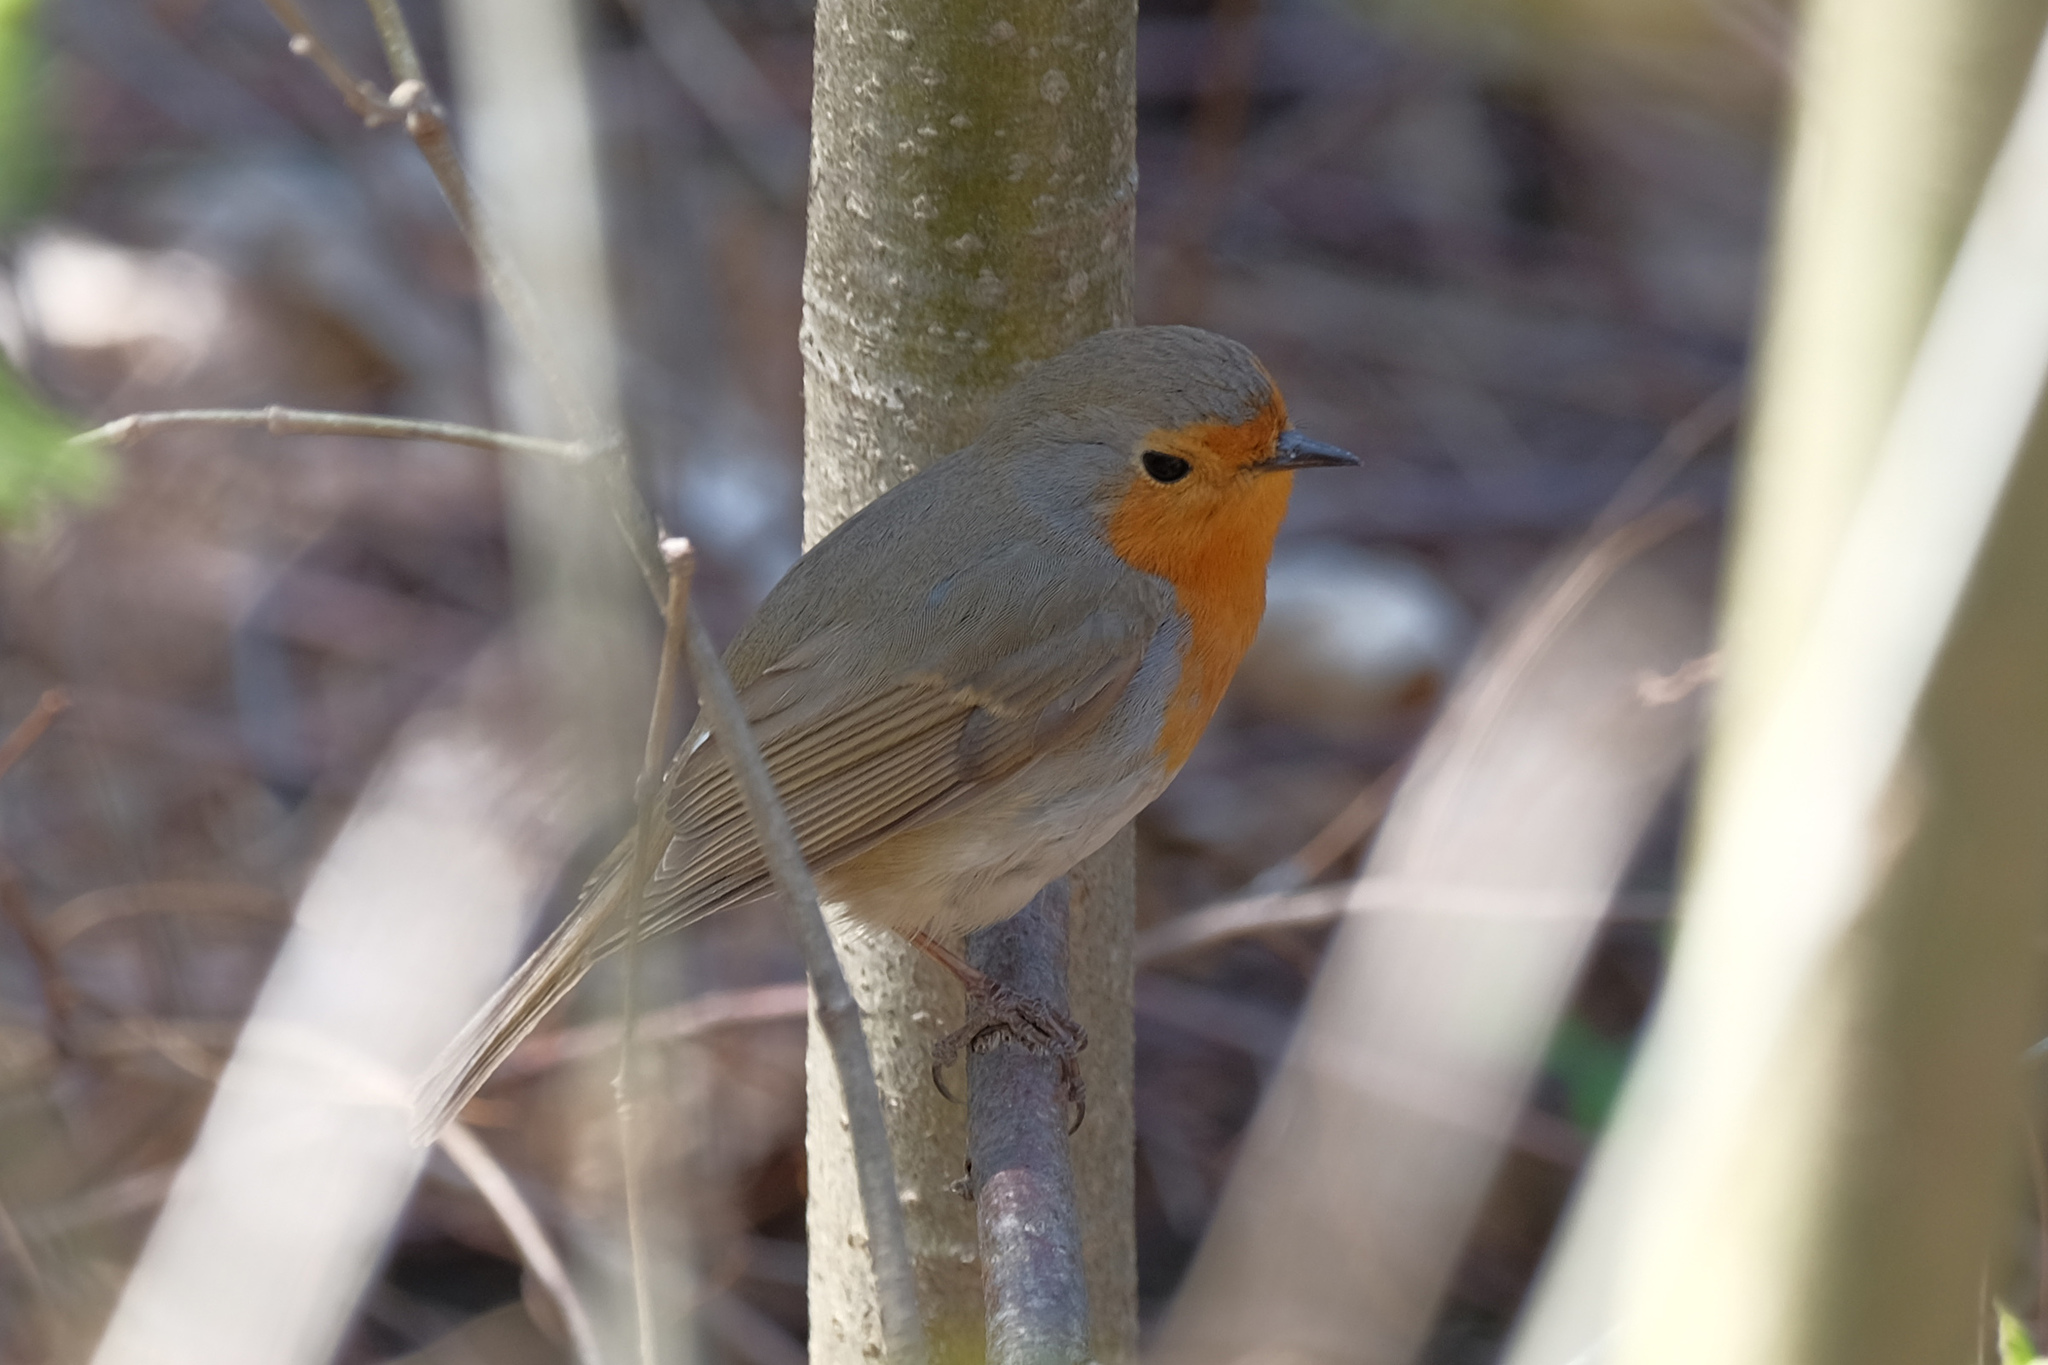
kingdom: Animalia
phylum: Chordata
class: Aves
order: Passeriformes
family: Muscicapidae
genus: Erithacus
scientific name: Erithacus rubecula
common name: European robin
